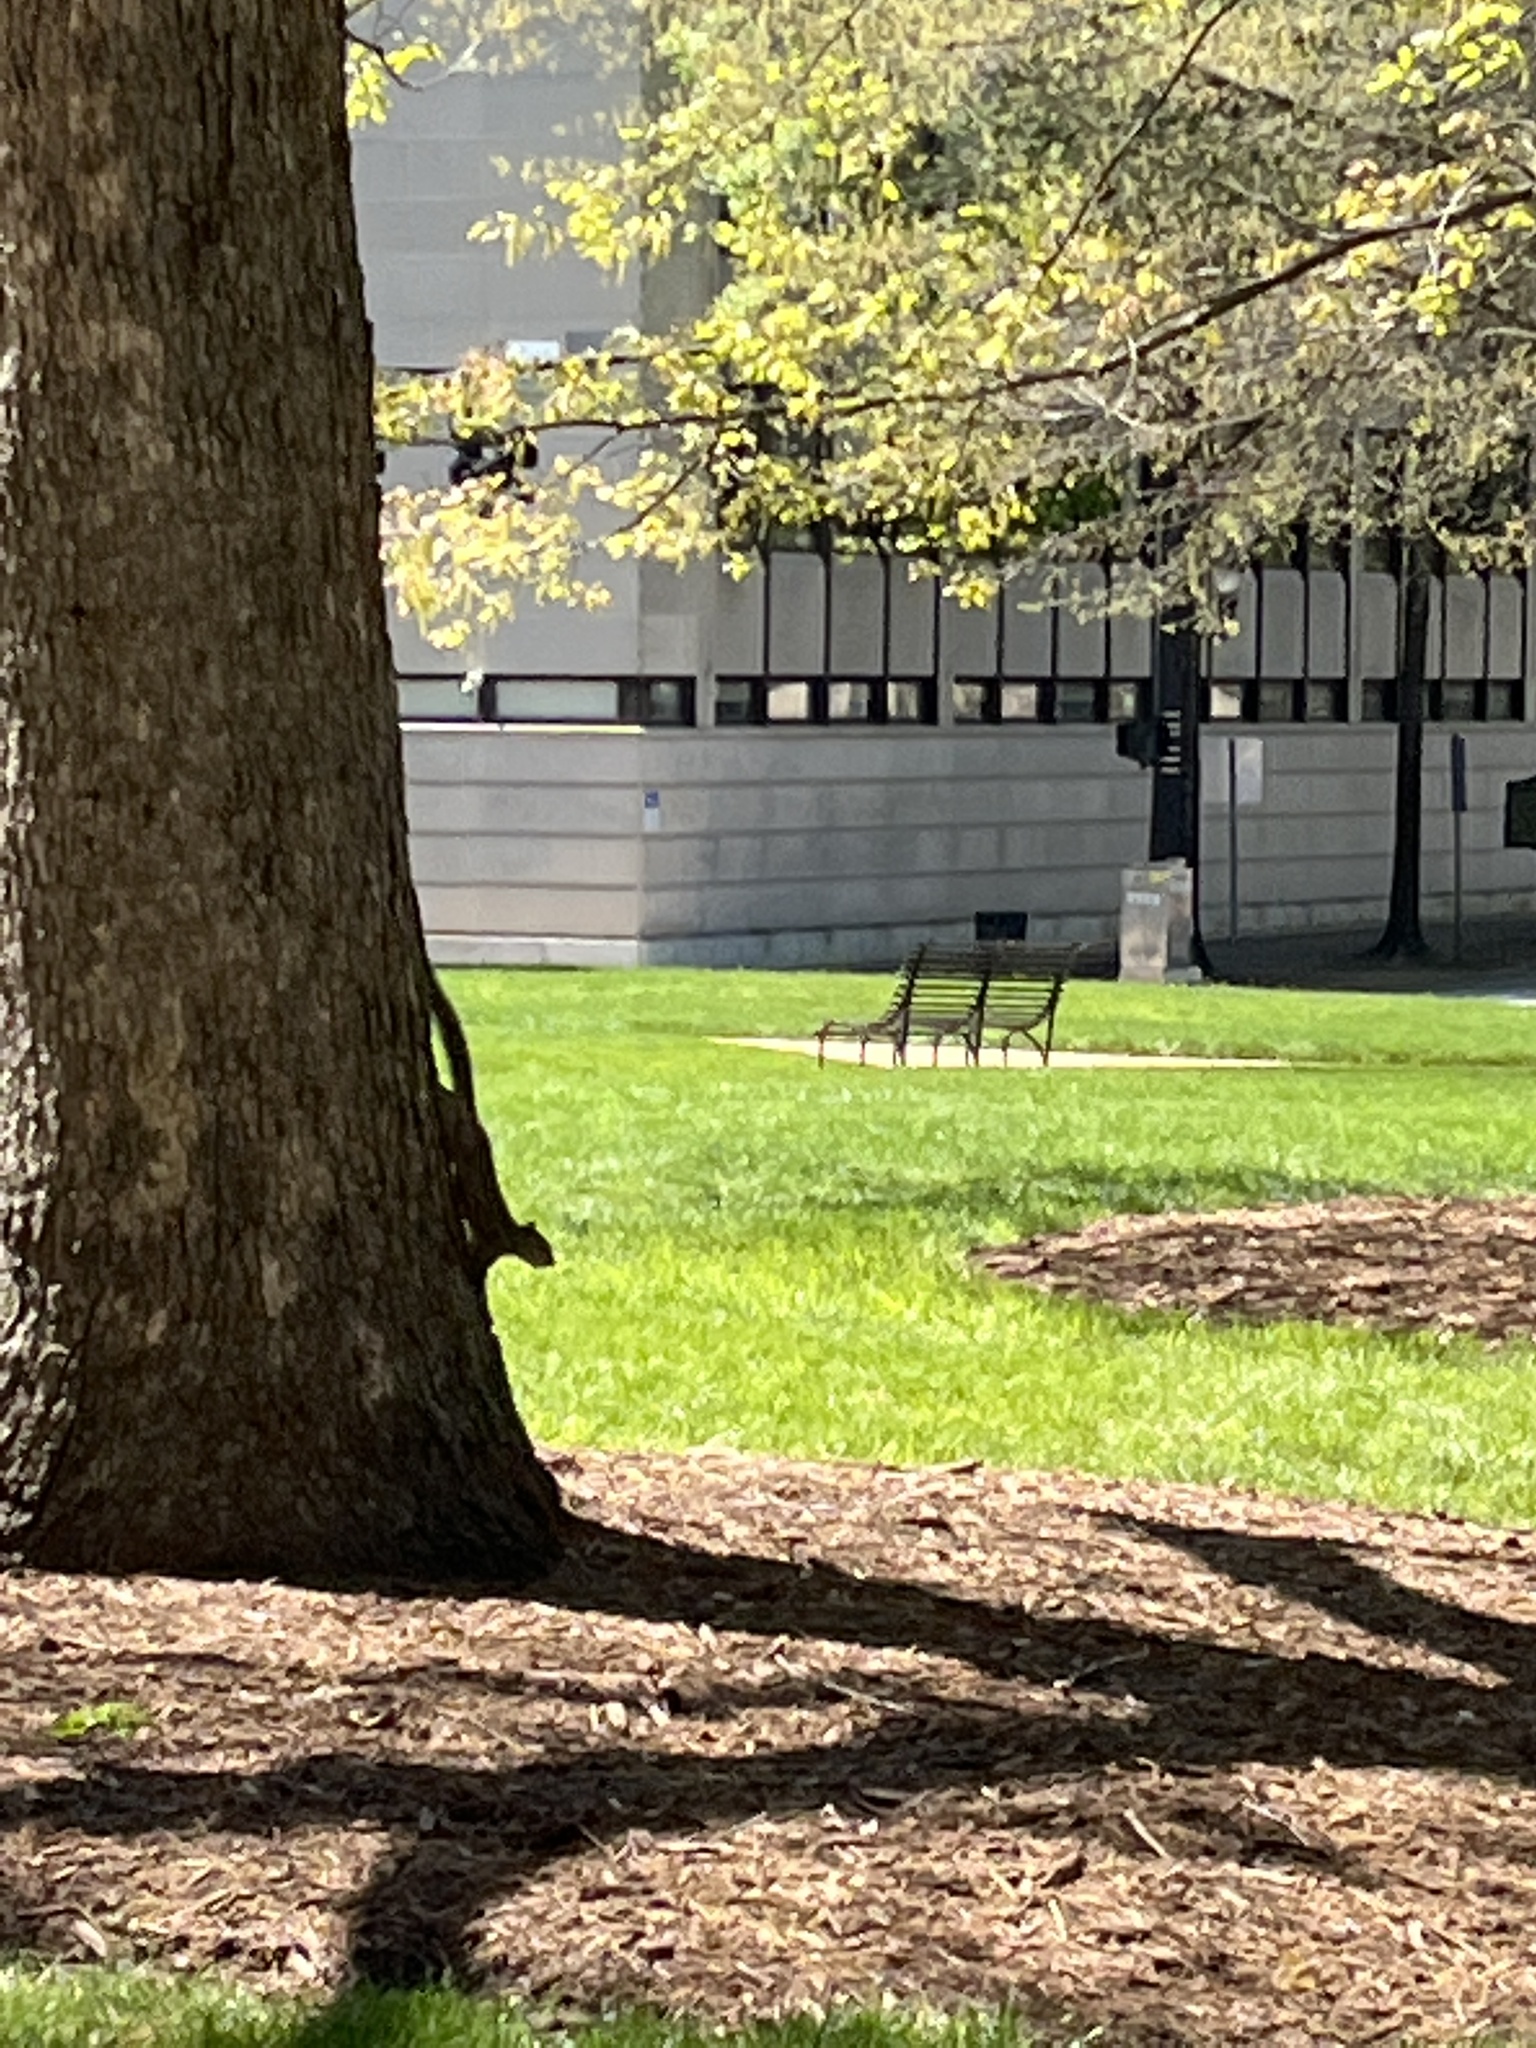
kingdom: Animalia
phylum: Chordata
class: Mammalia
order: Rodentia
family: Sciuridae
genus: Sciurus
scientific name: Sciurus carolinensis
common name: Eastern gray squirrel
